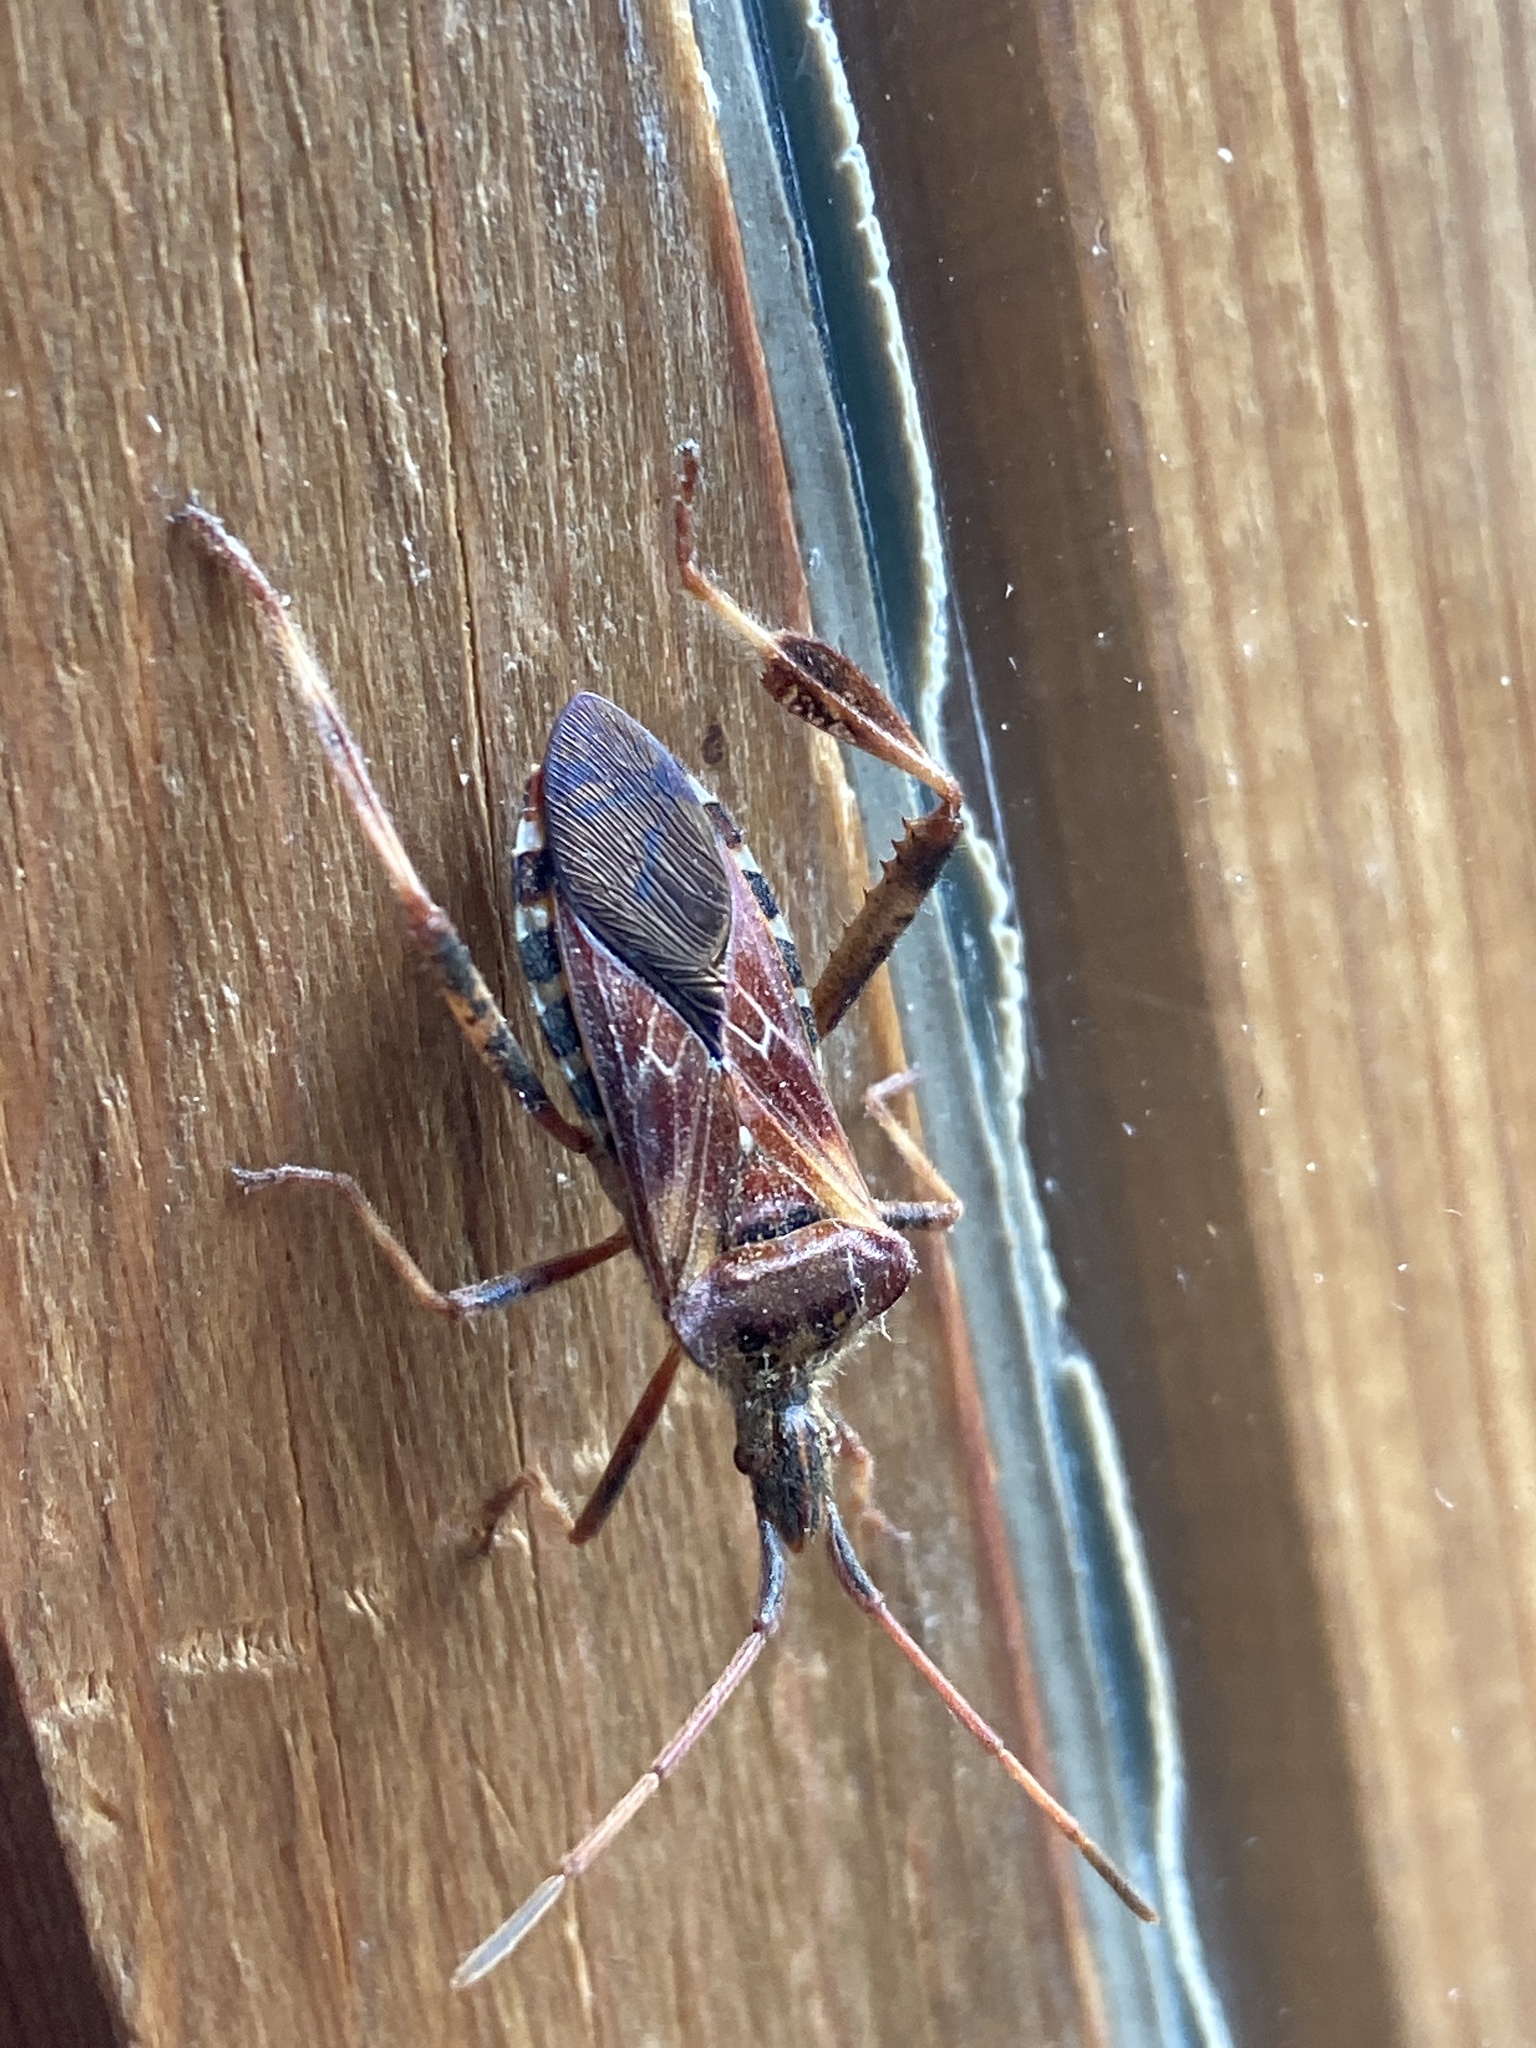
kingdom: Animalia
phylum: Arthropoda
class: Insecta
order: Hemiptera
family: Coreidae
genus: Leptoglossus
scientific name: Leptoglossus occidentalis
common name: Western conifer-seed bug
